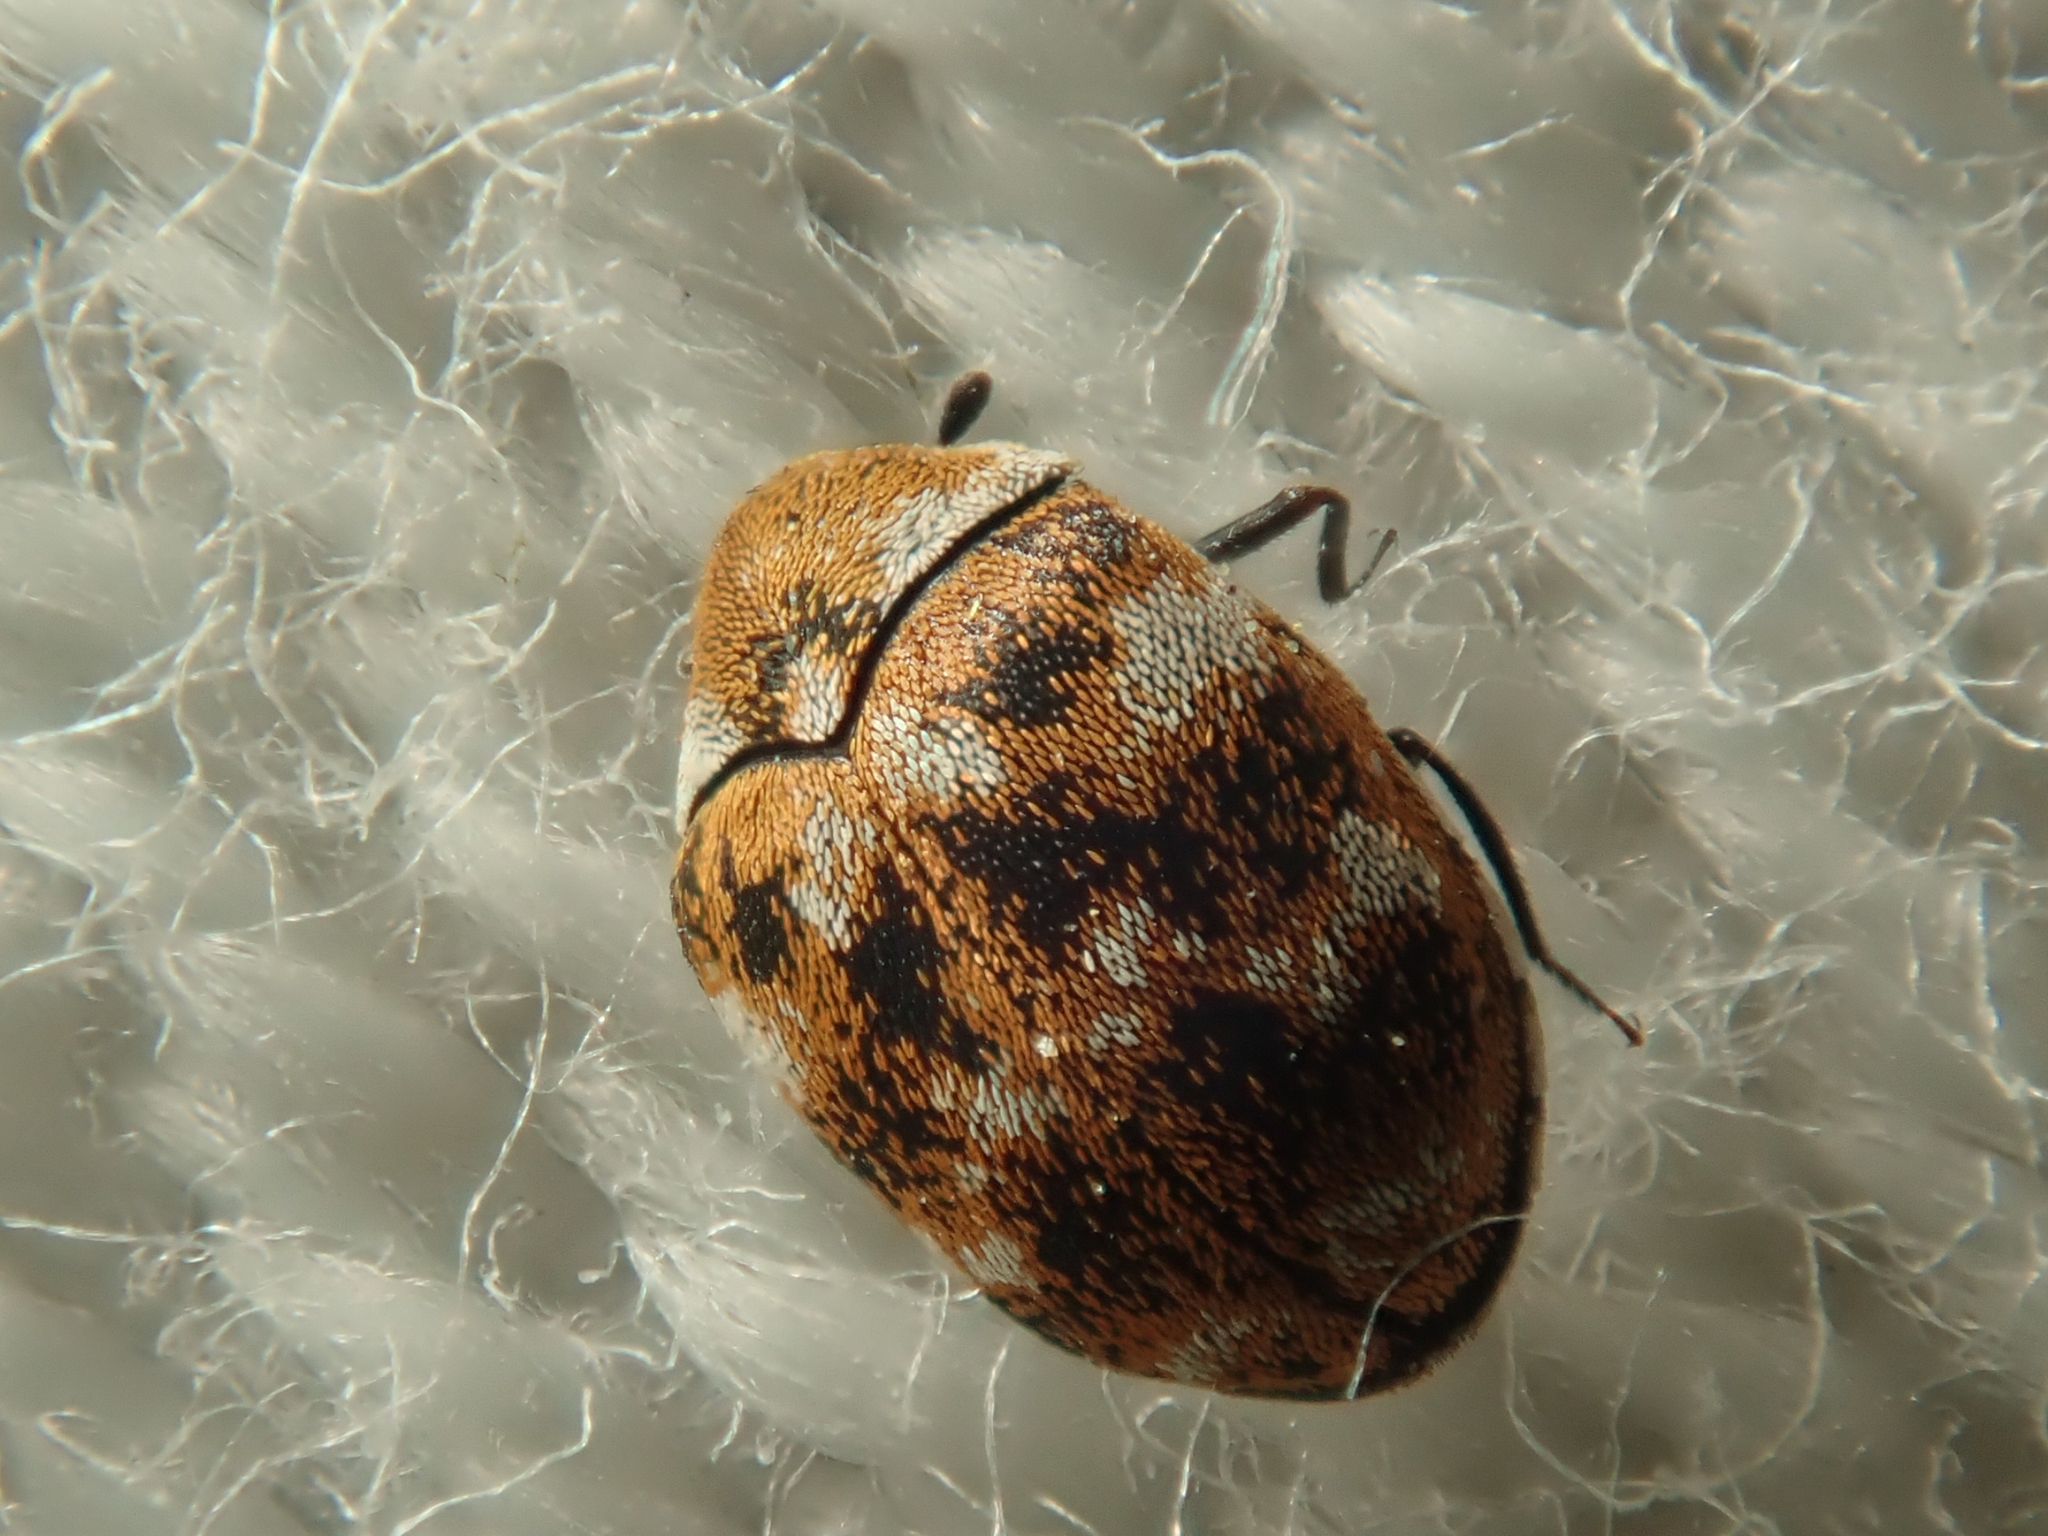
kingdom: Animalia
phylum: Arthropoda
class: Insecta
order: Coleoptera
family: Dermestidae
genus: Anthrenus
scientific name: Anthrenus verbasci
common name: Varied carpet beetle
